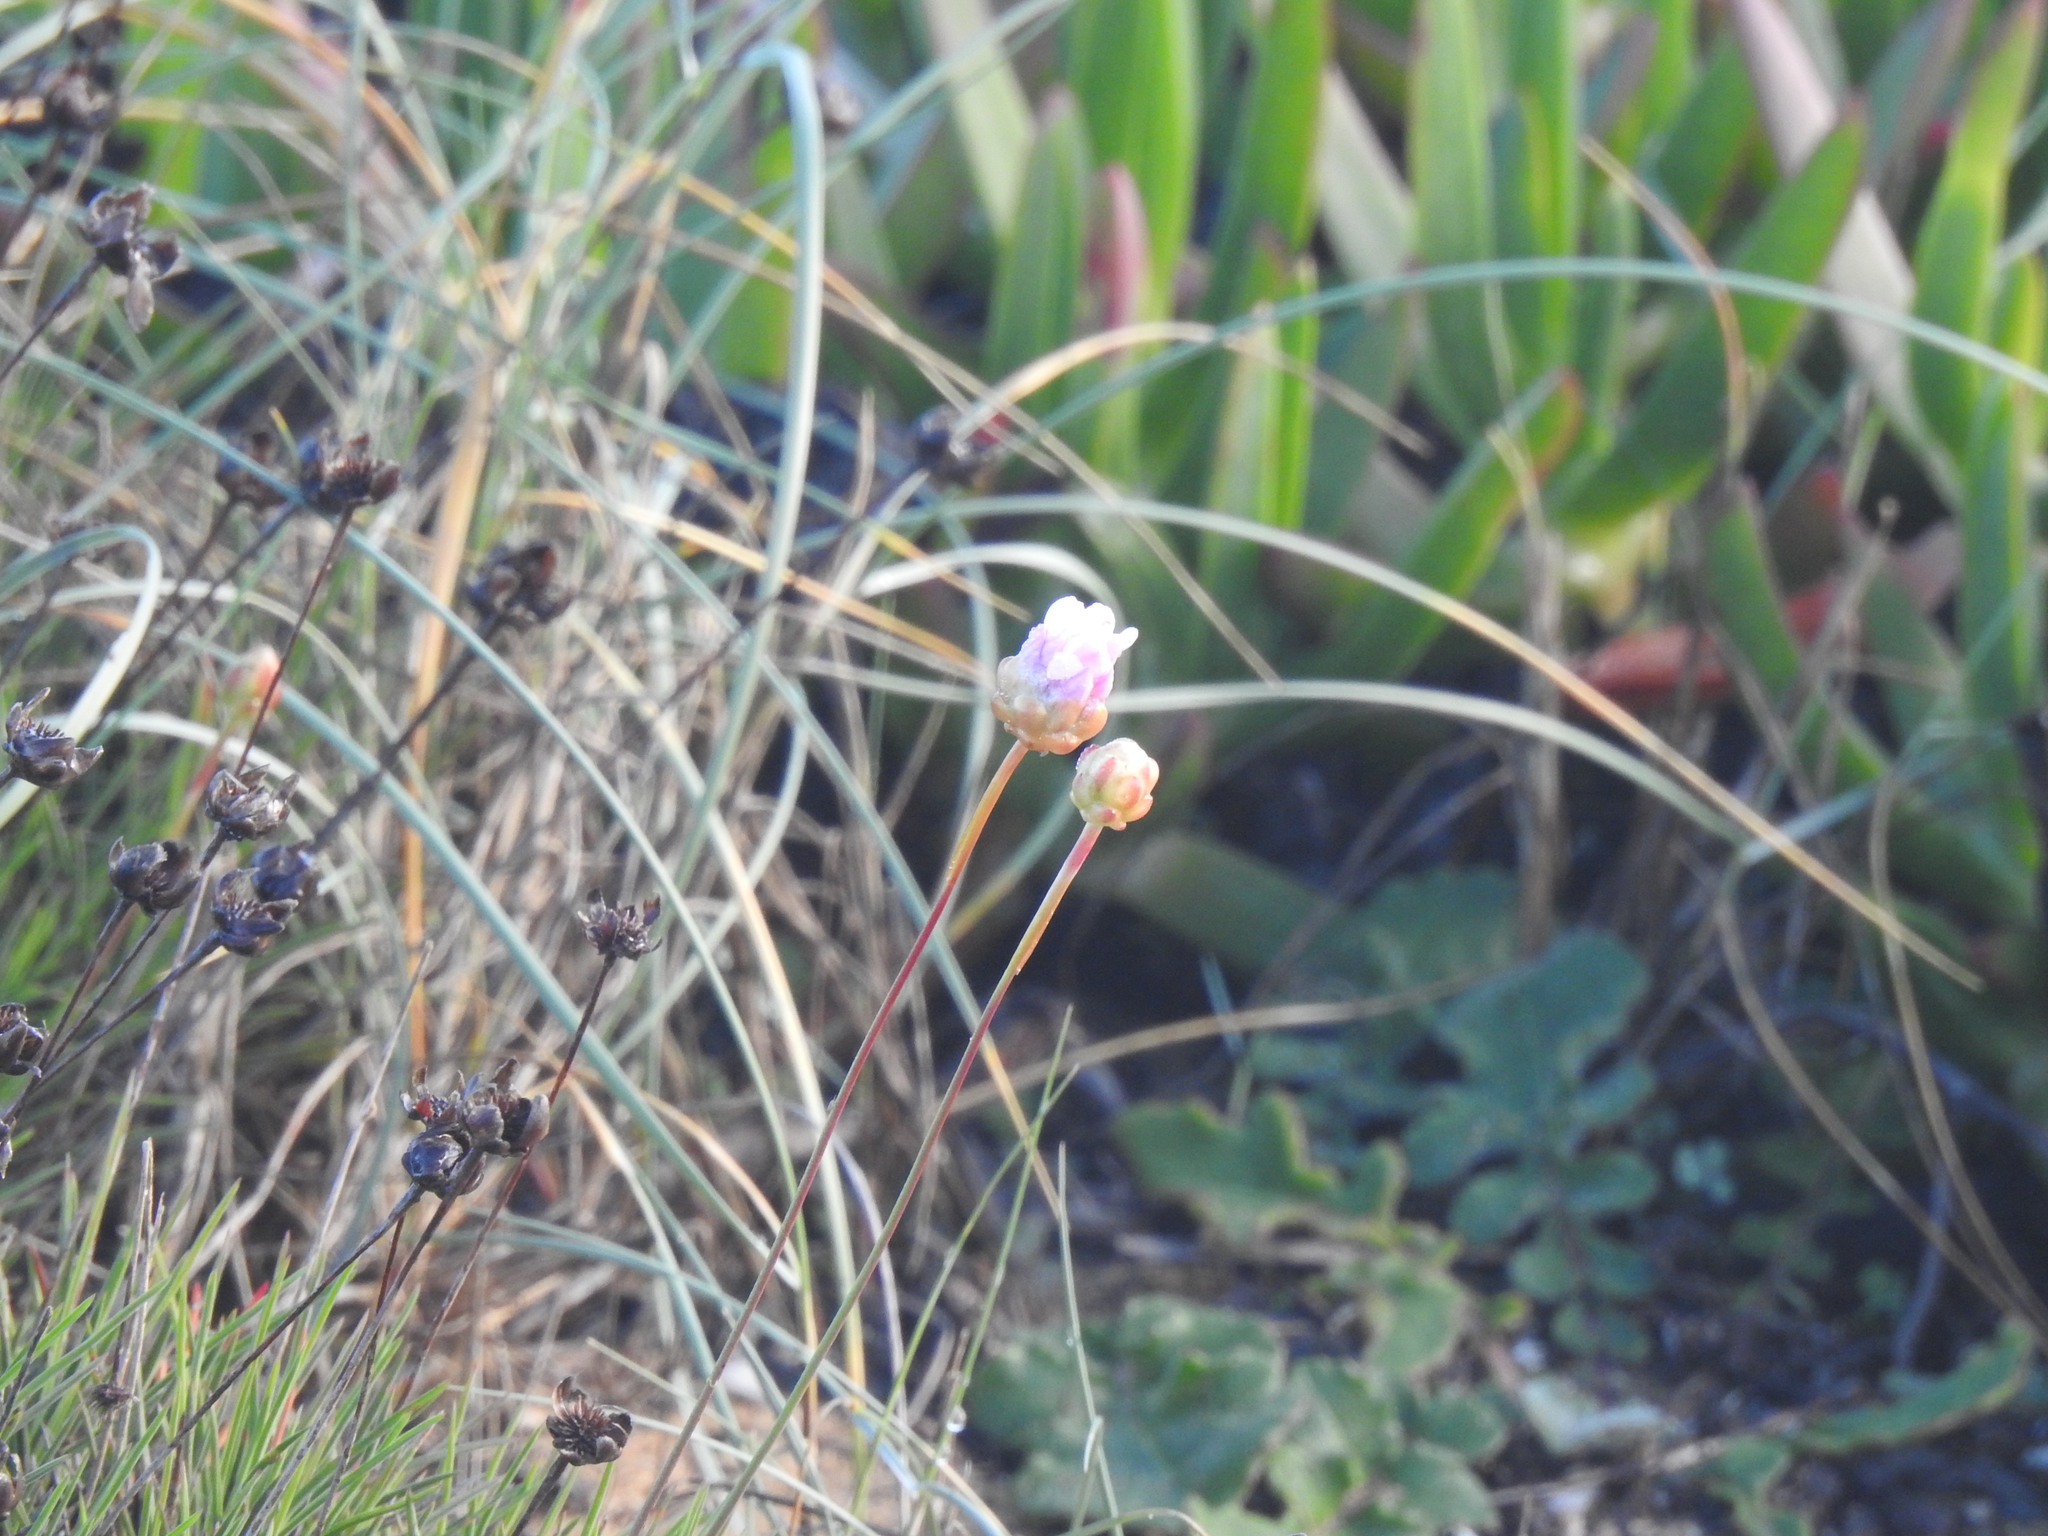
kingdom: Plantae
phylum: Tracheophyta
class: Magnoliopsida
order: Caryophyllales
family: Plumbaginaceae
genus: Armeria
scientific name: Armeria pungens
